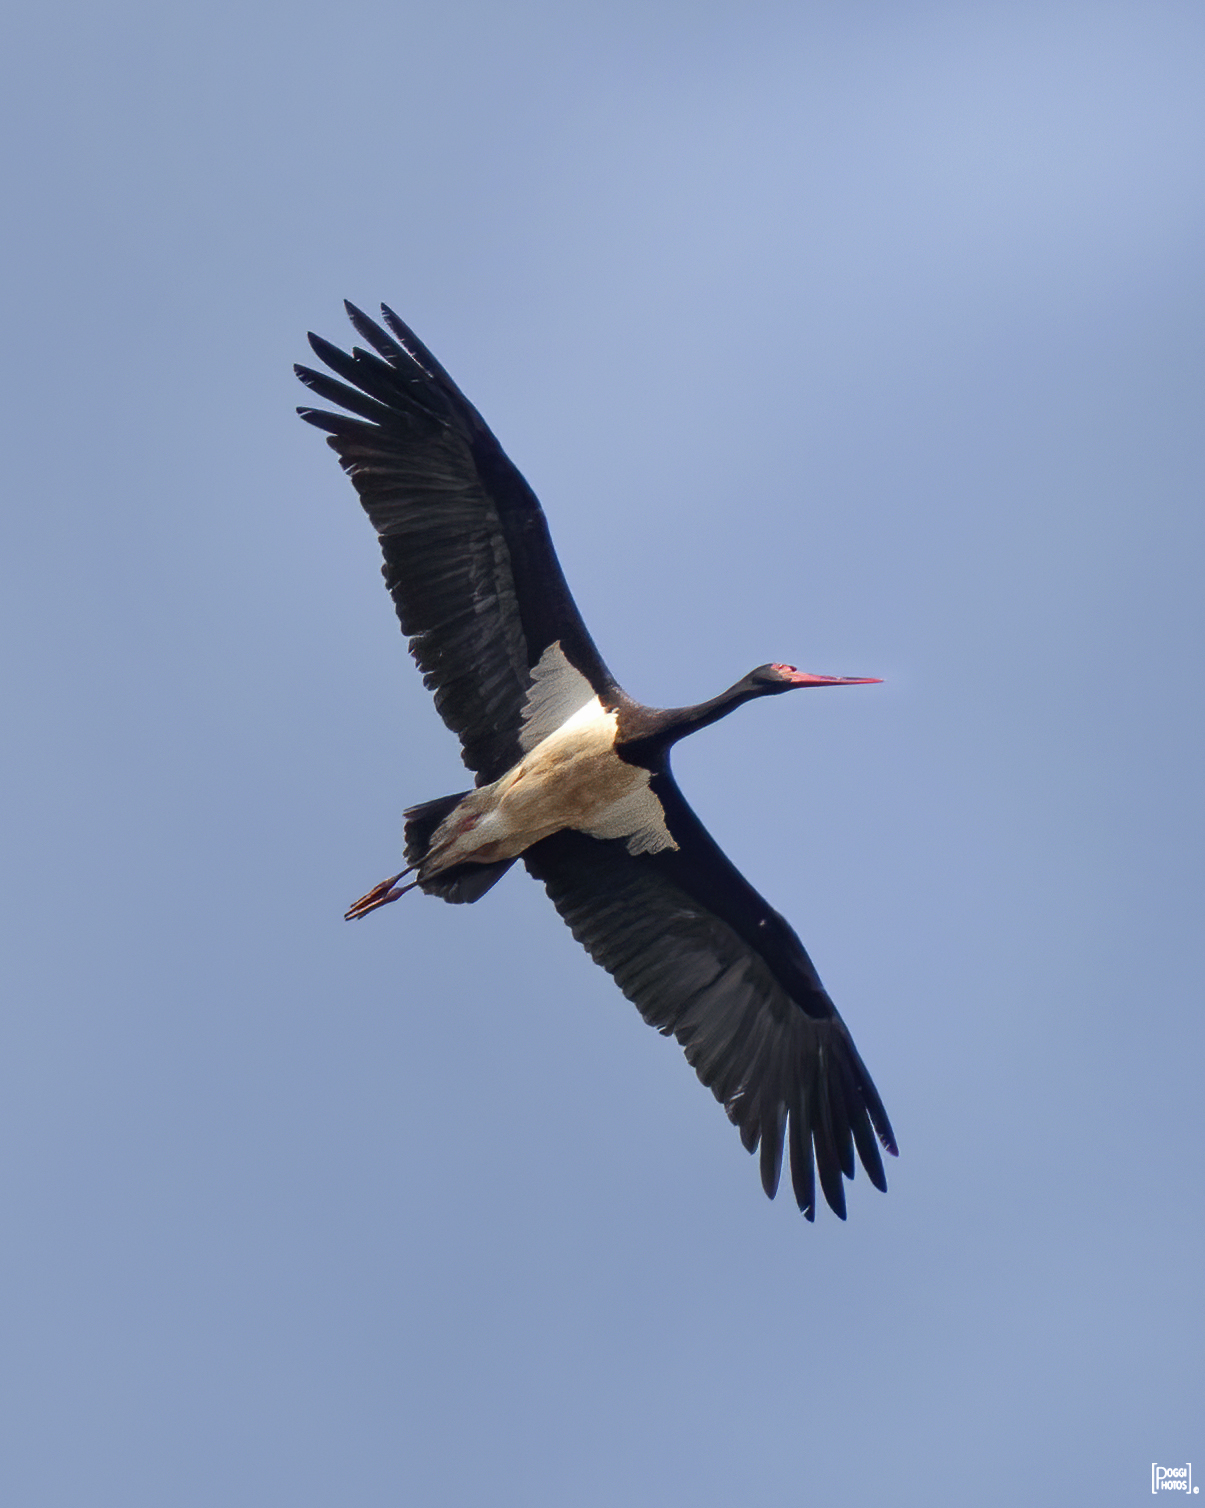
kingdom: Animalia
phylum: Chordata
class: Aves
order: Ciconiiformes
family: Ciconiidae
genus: Ciconia
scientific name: Ciconia nigra
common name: Black stork
